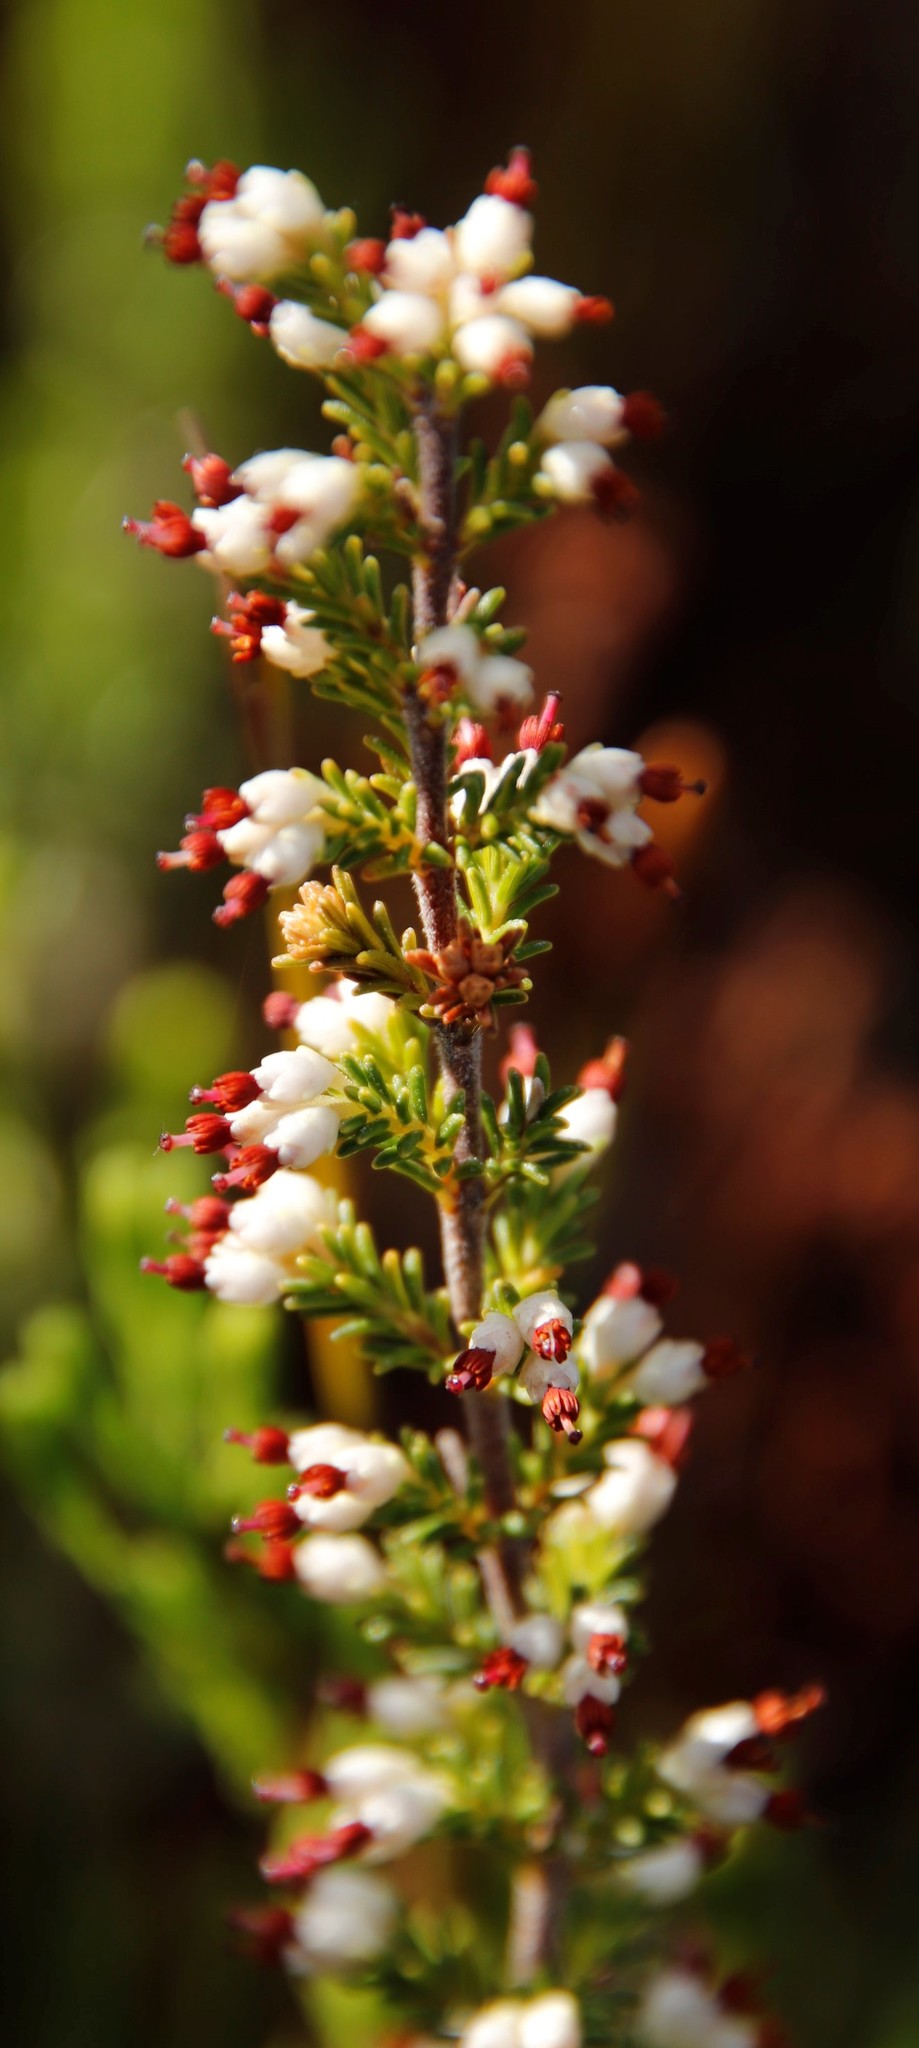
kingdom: Plantae
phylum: Tracheophyta
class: Magnoliopsida
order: Ericales
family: Ericaceae
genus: Erica
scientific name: Erica lasciva
